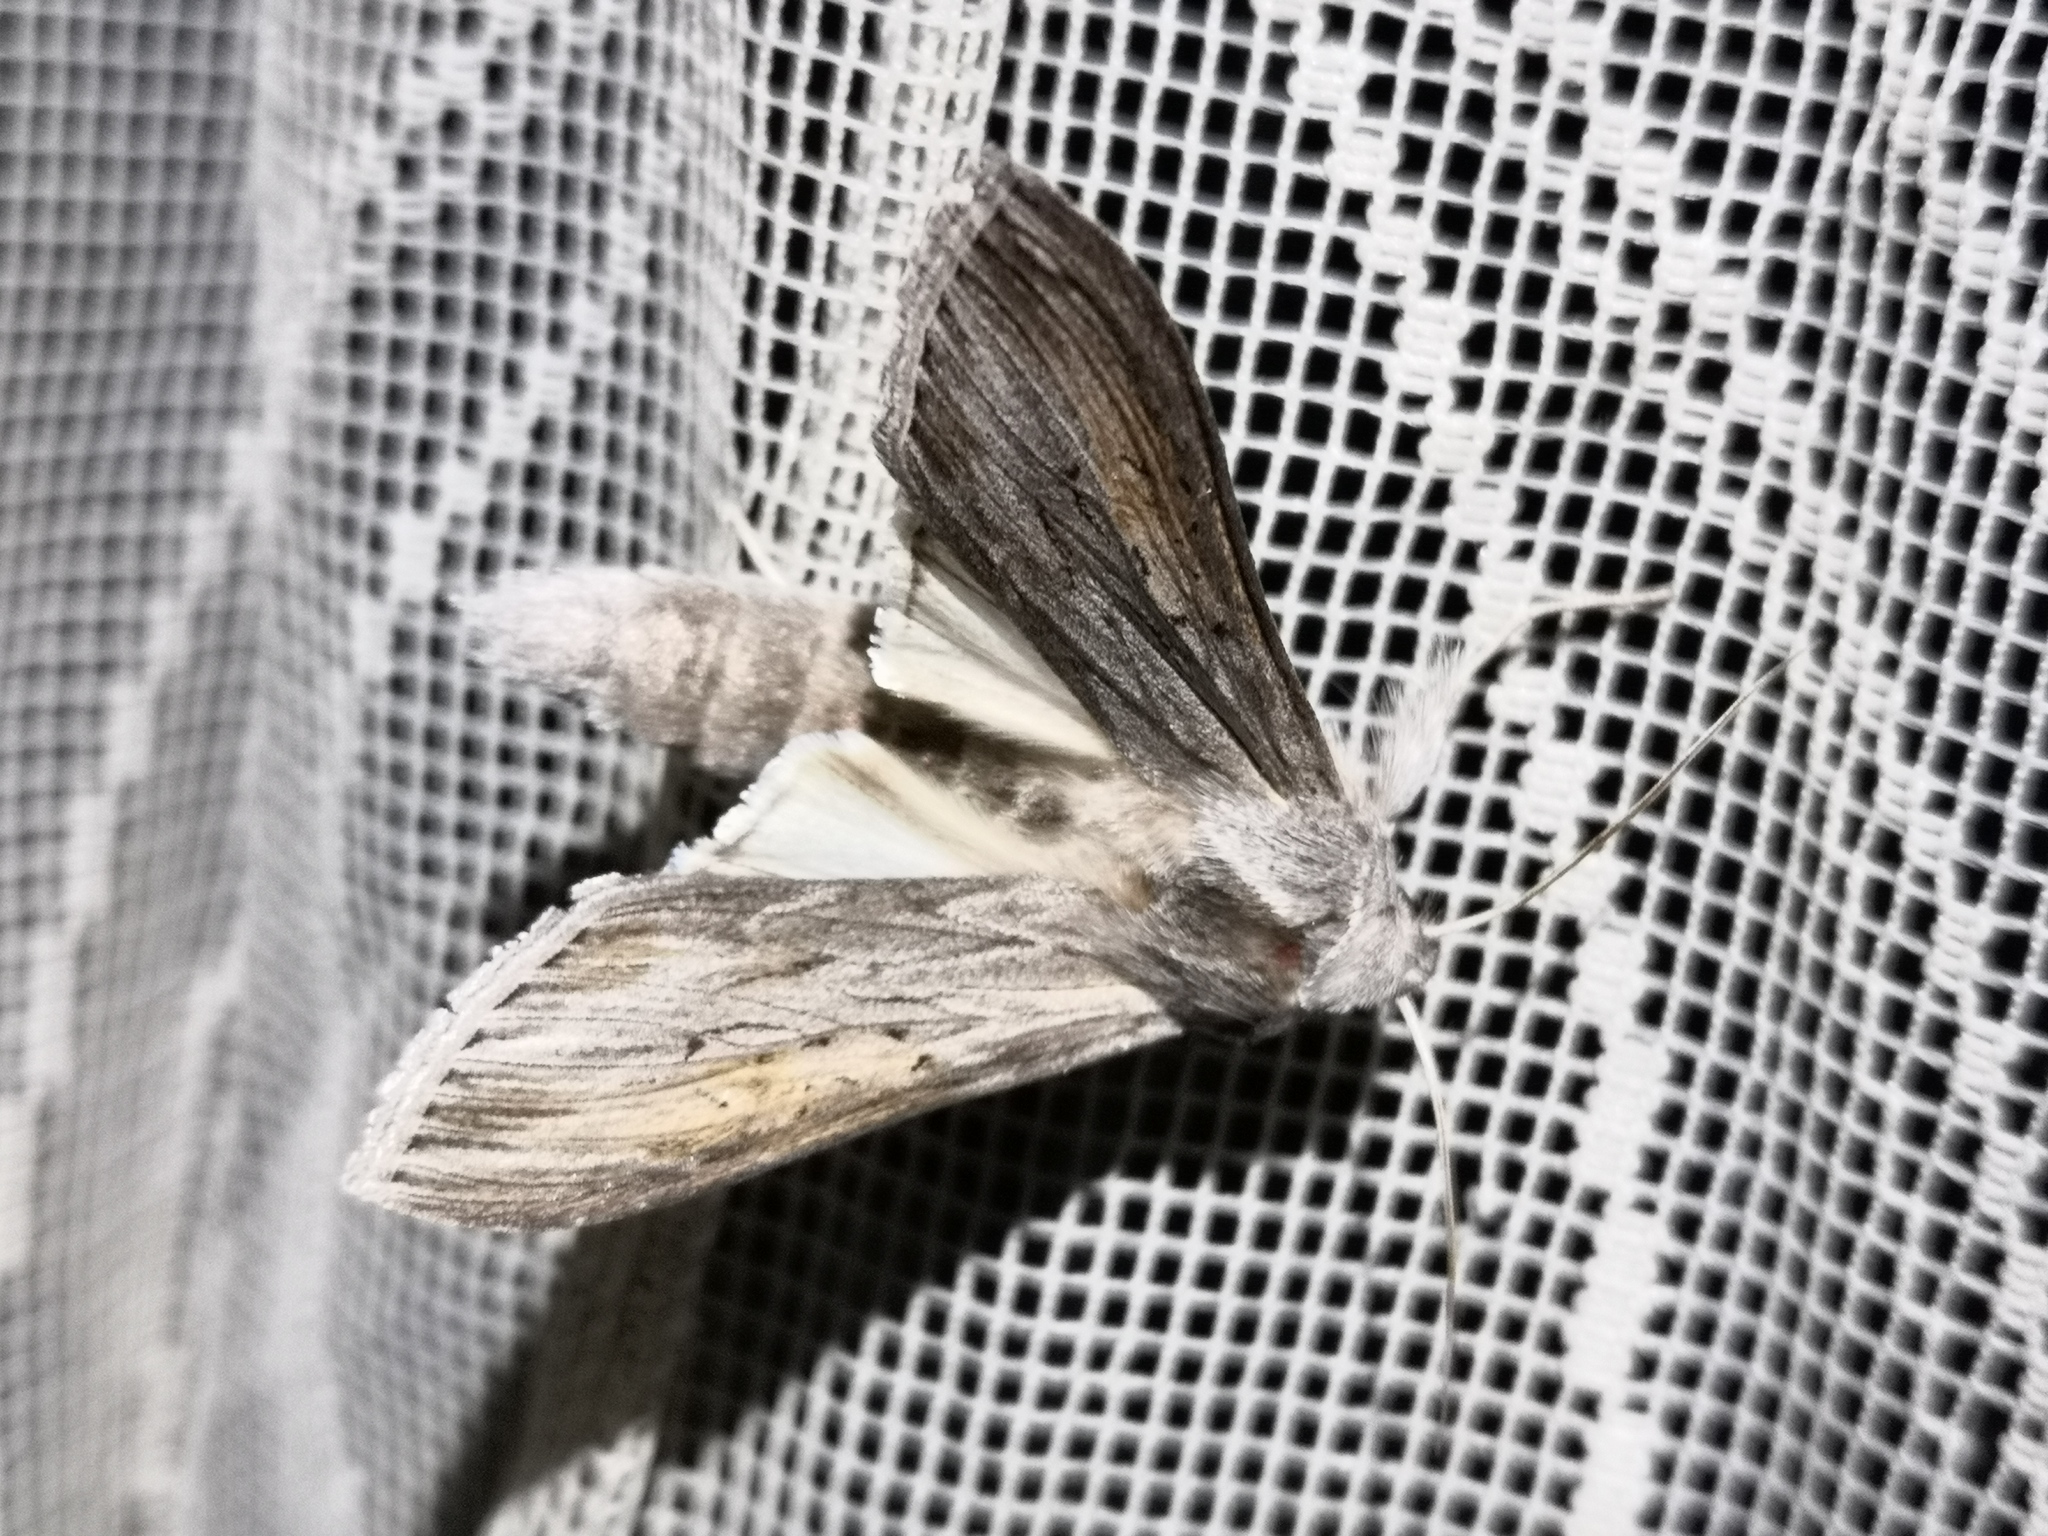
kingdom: Animalia
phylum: Arthropoda
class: Insecta
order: Lepidoptera
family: Noctuidae
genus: Cucullia
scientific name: Cucullia umbratica
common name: Shark
